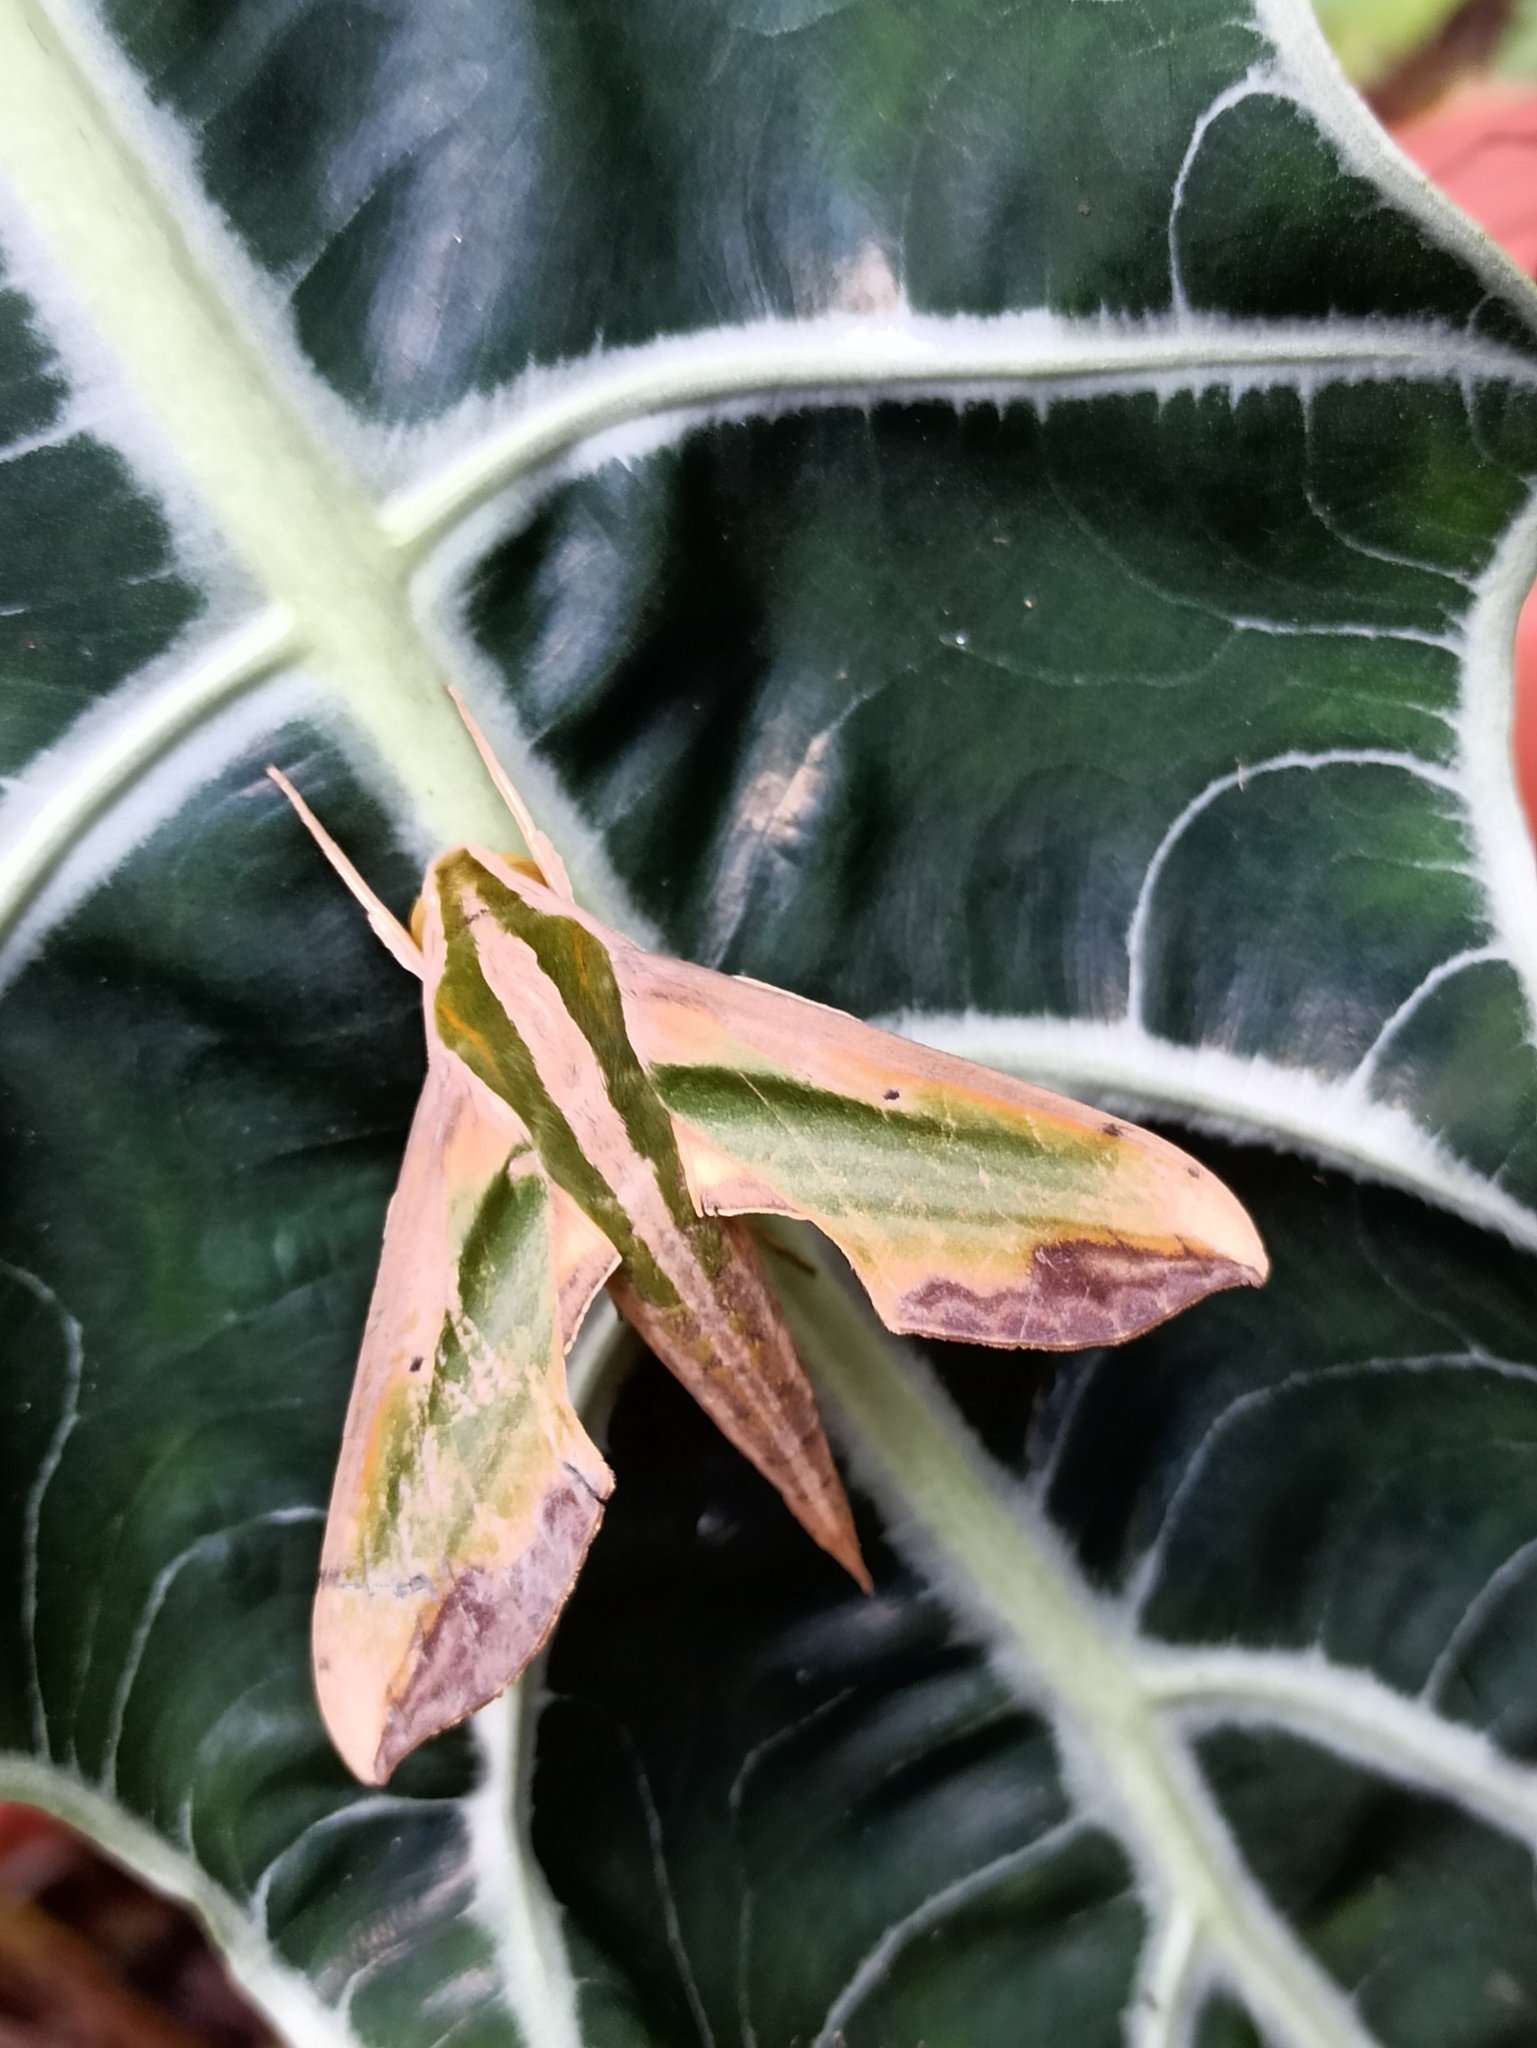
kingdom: Animalia
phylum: Arthropoda
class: Insecta
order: Lepidoptera
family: Sphingidae
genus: Pergesa
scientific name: Pergesa acteus
